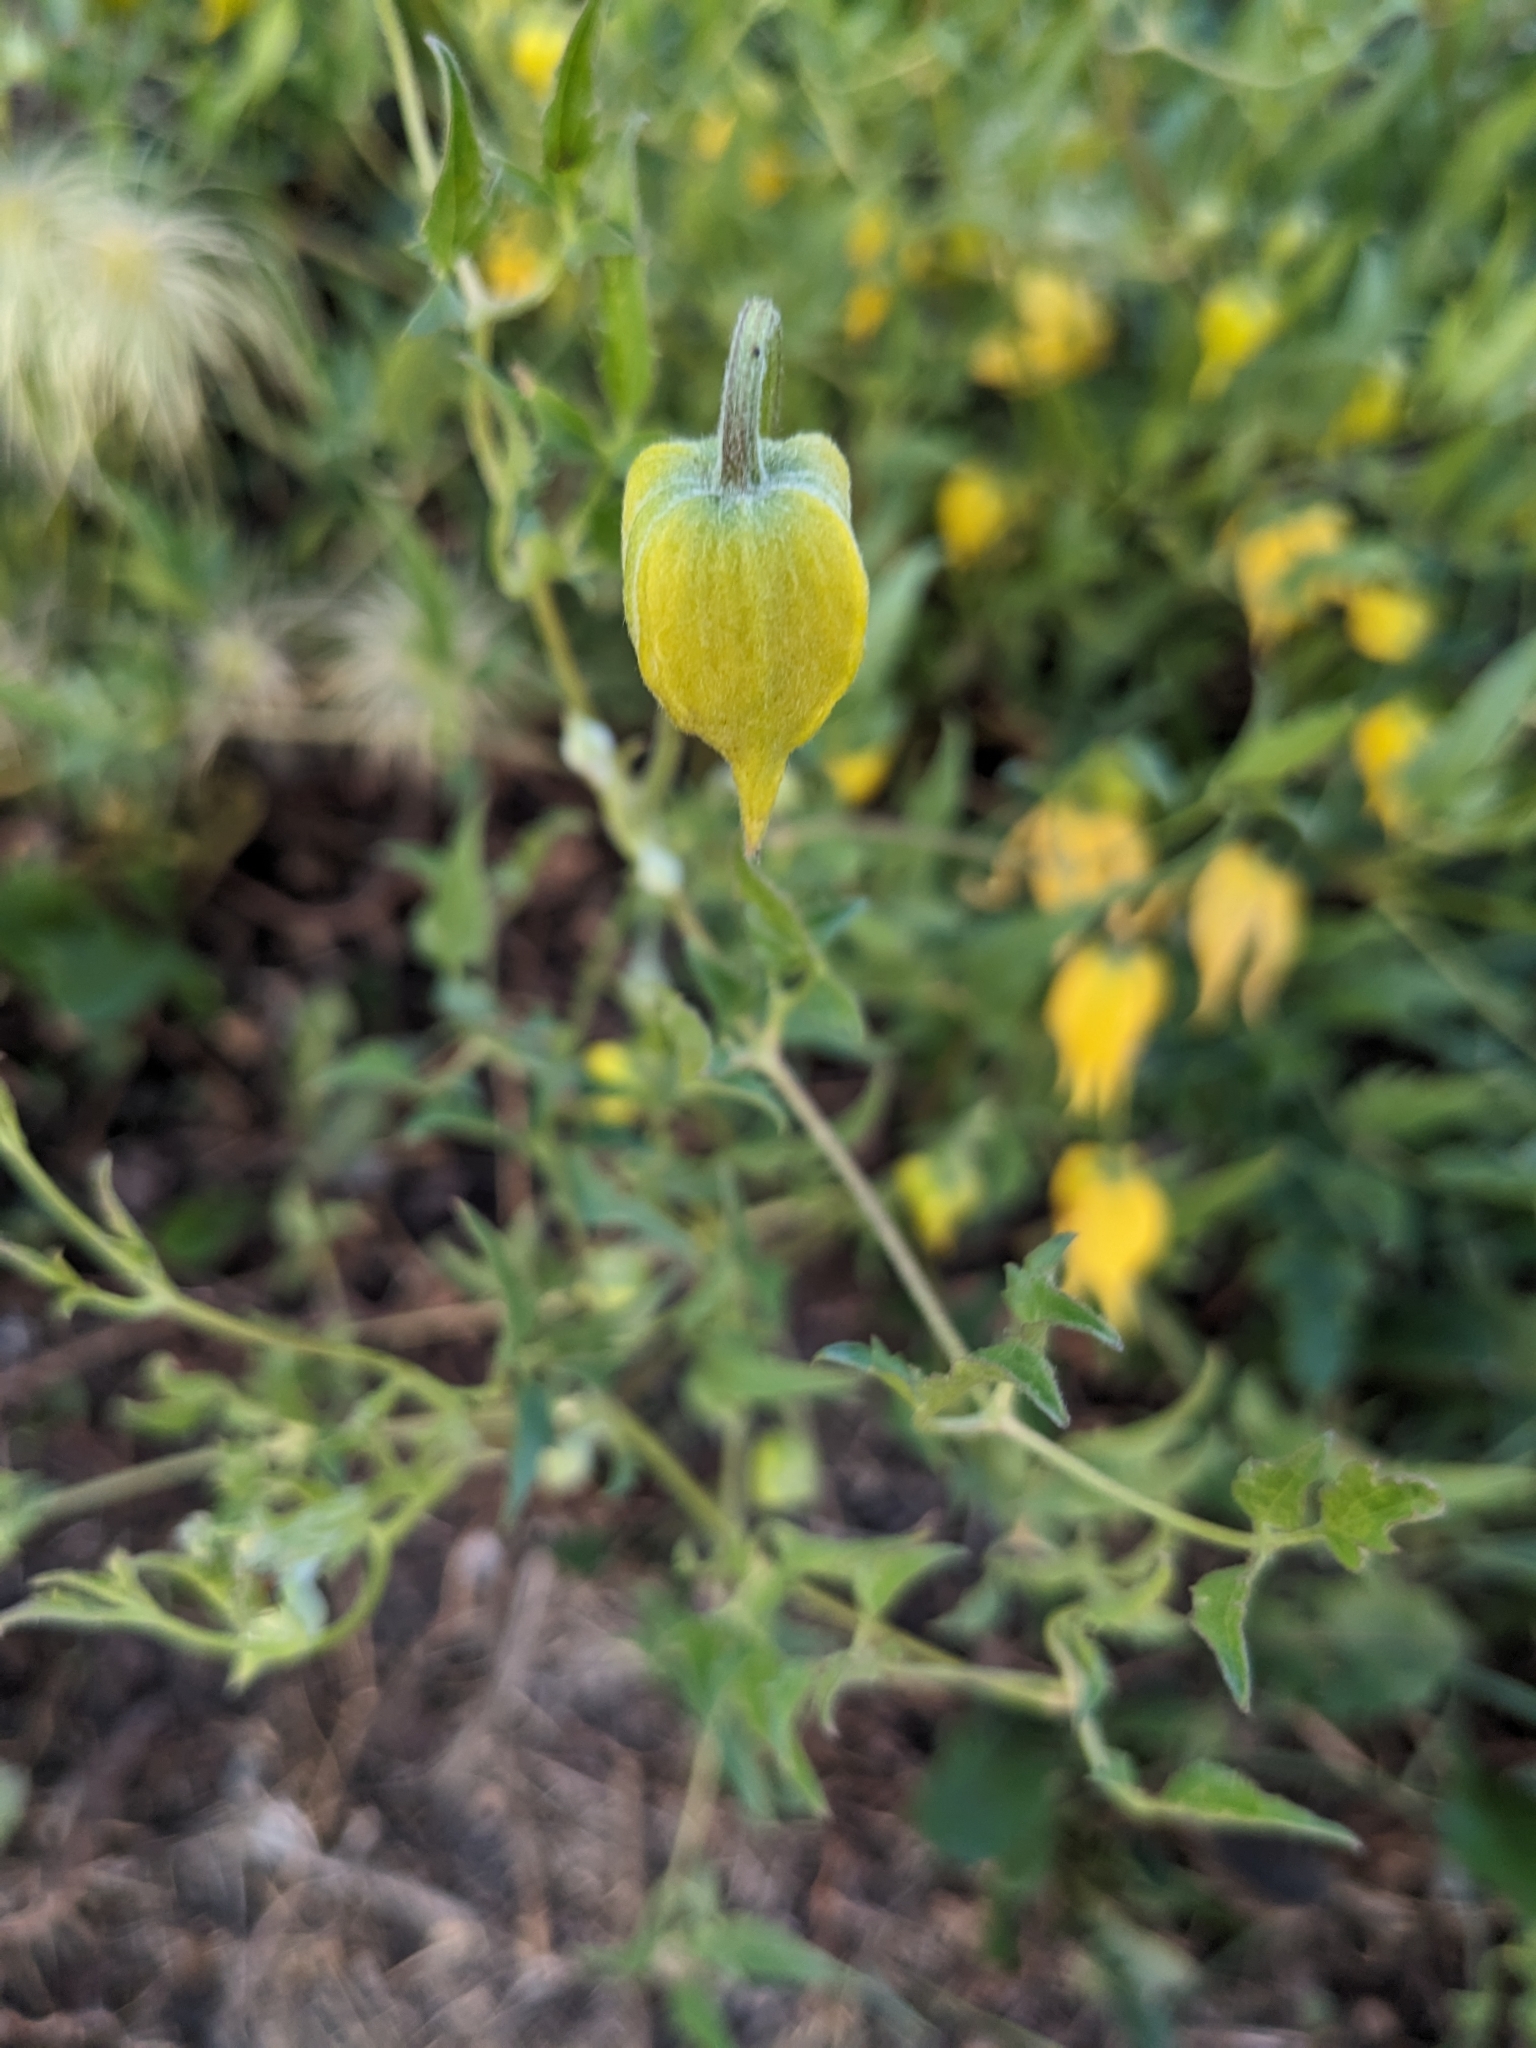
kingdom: Plantae
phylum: Tracheophyta
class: Magnoliopsida
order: Ranunculales
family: Ranunculaceae
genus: Clematis
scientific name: Clematis tangutica
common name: Orange-peel clematis
